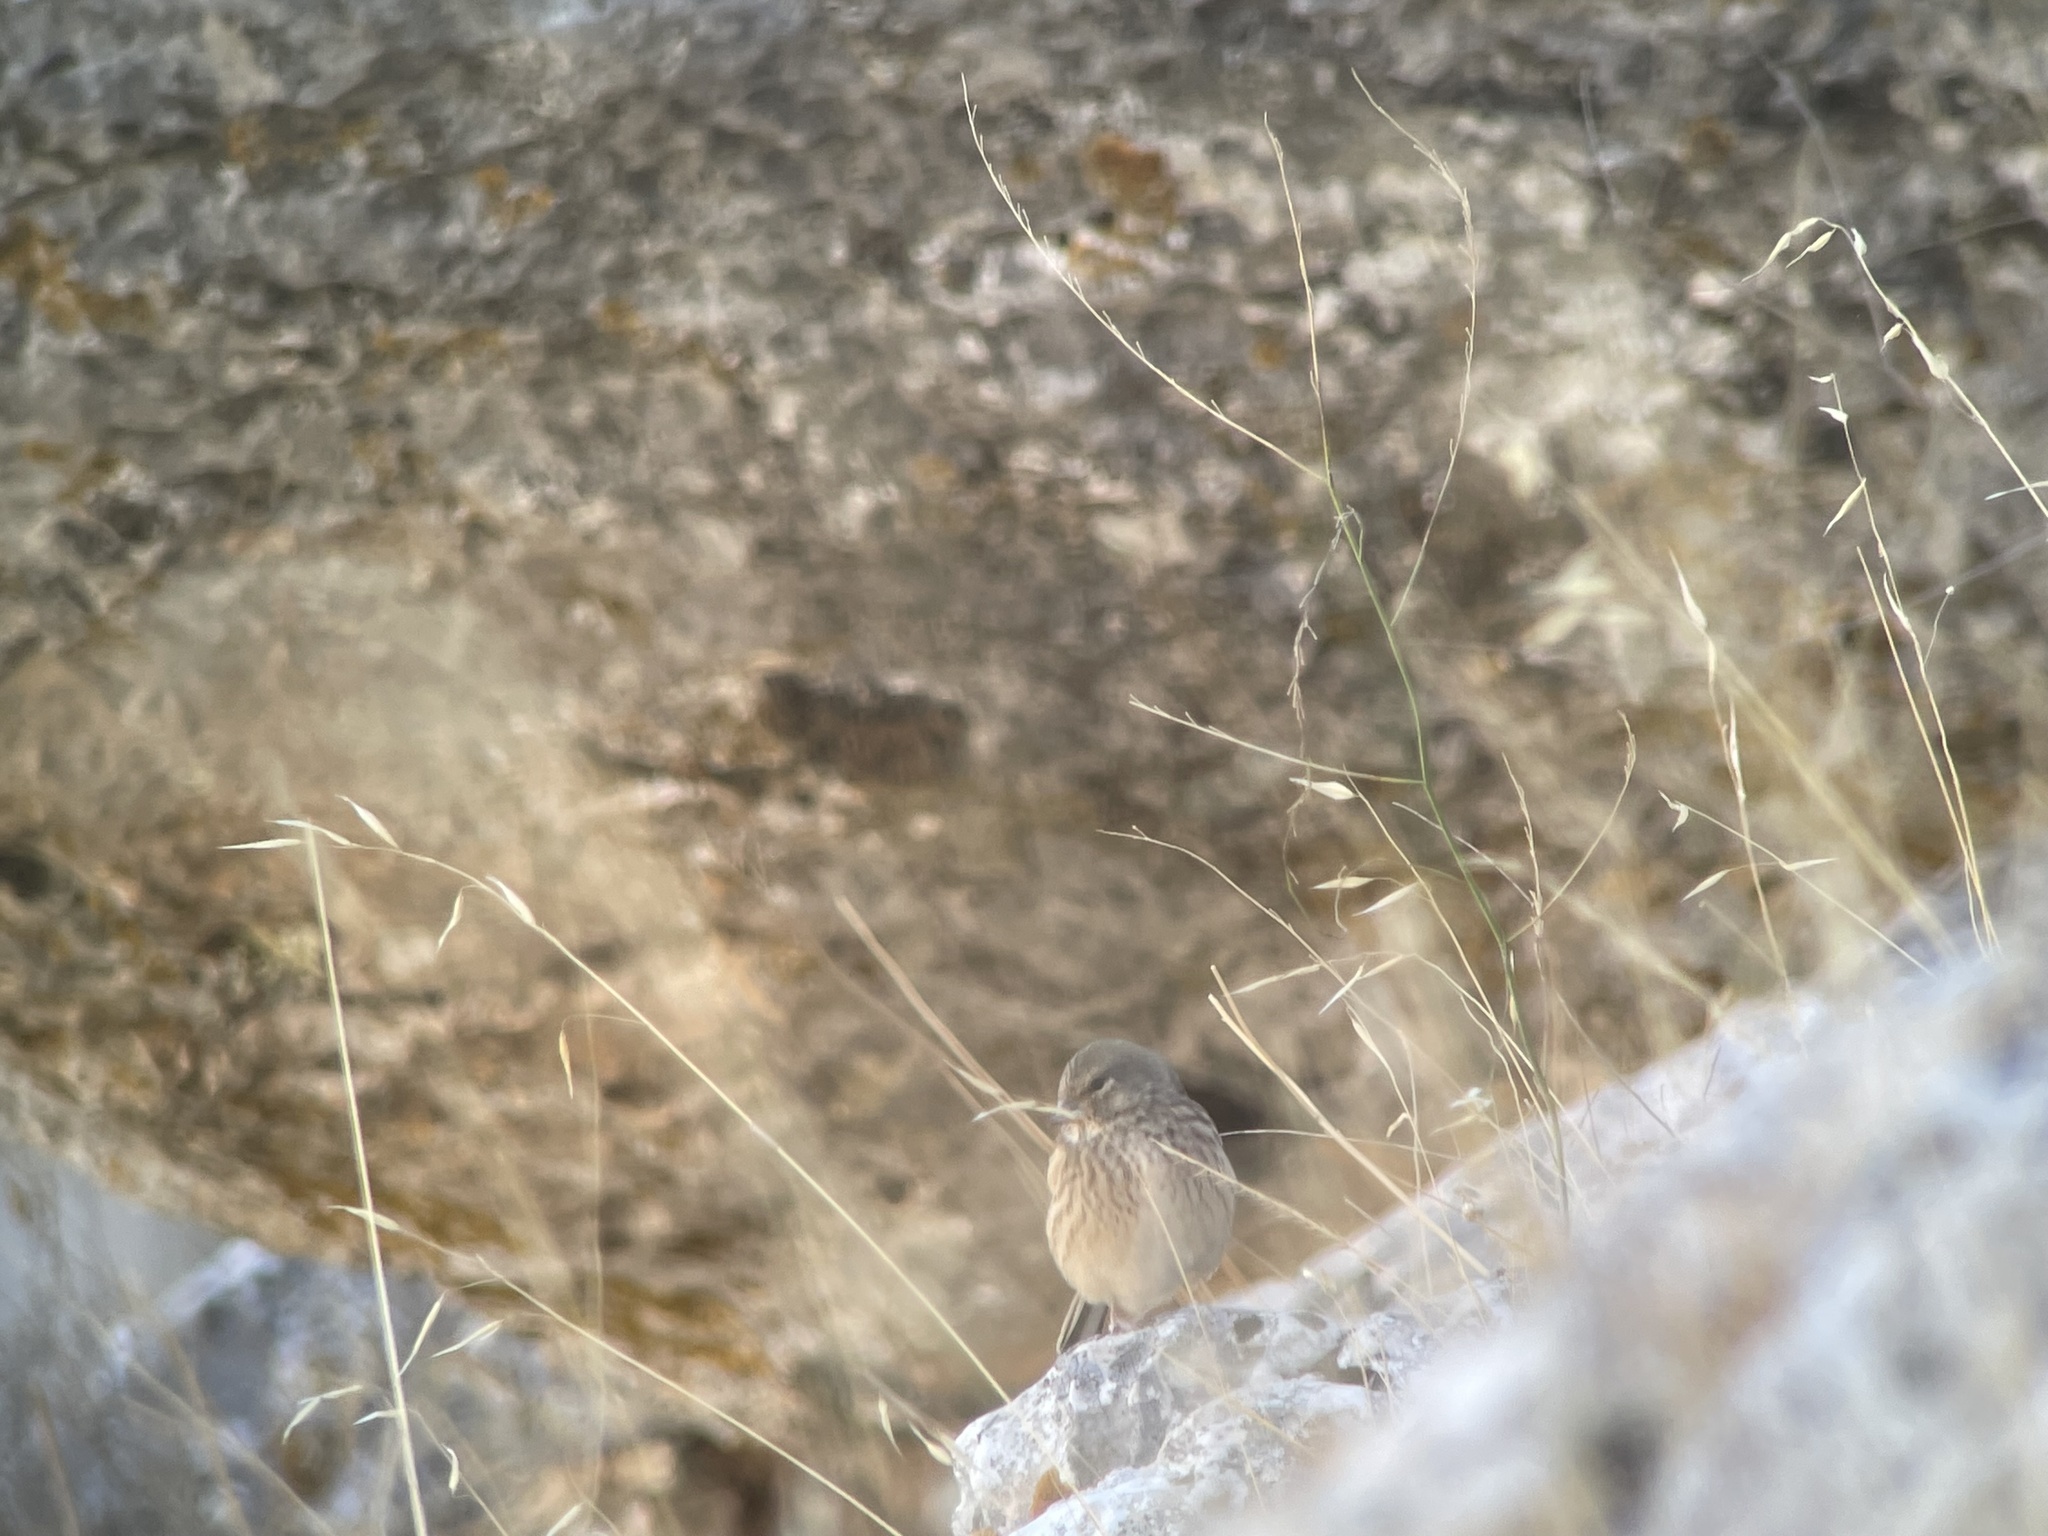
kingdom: Animalia
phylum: Chordata
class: Aves
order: Passeriformes
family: Fringillidae
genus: Linaria
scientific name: Linaria cannabina
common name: Common linnet
